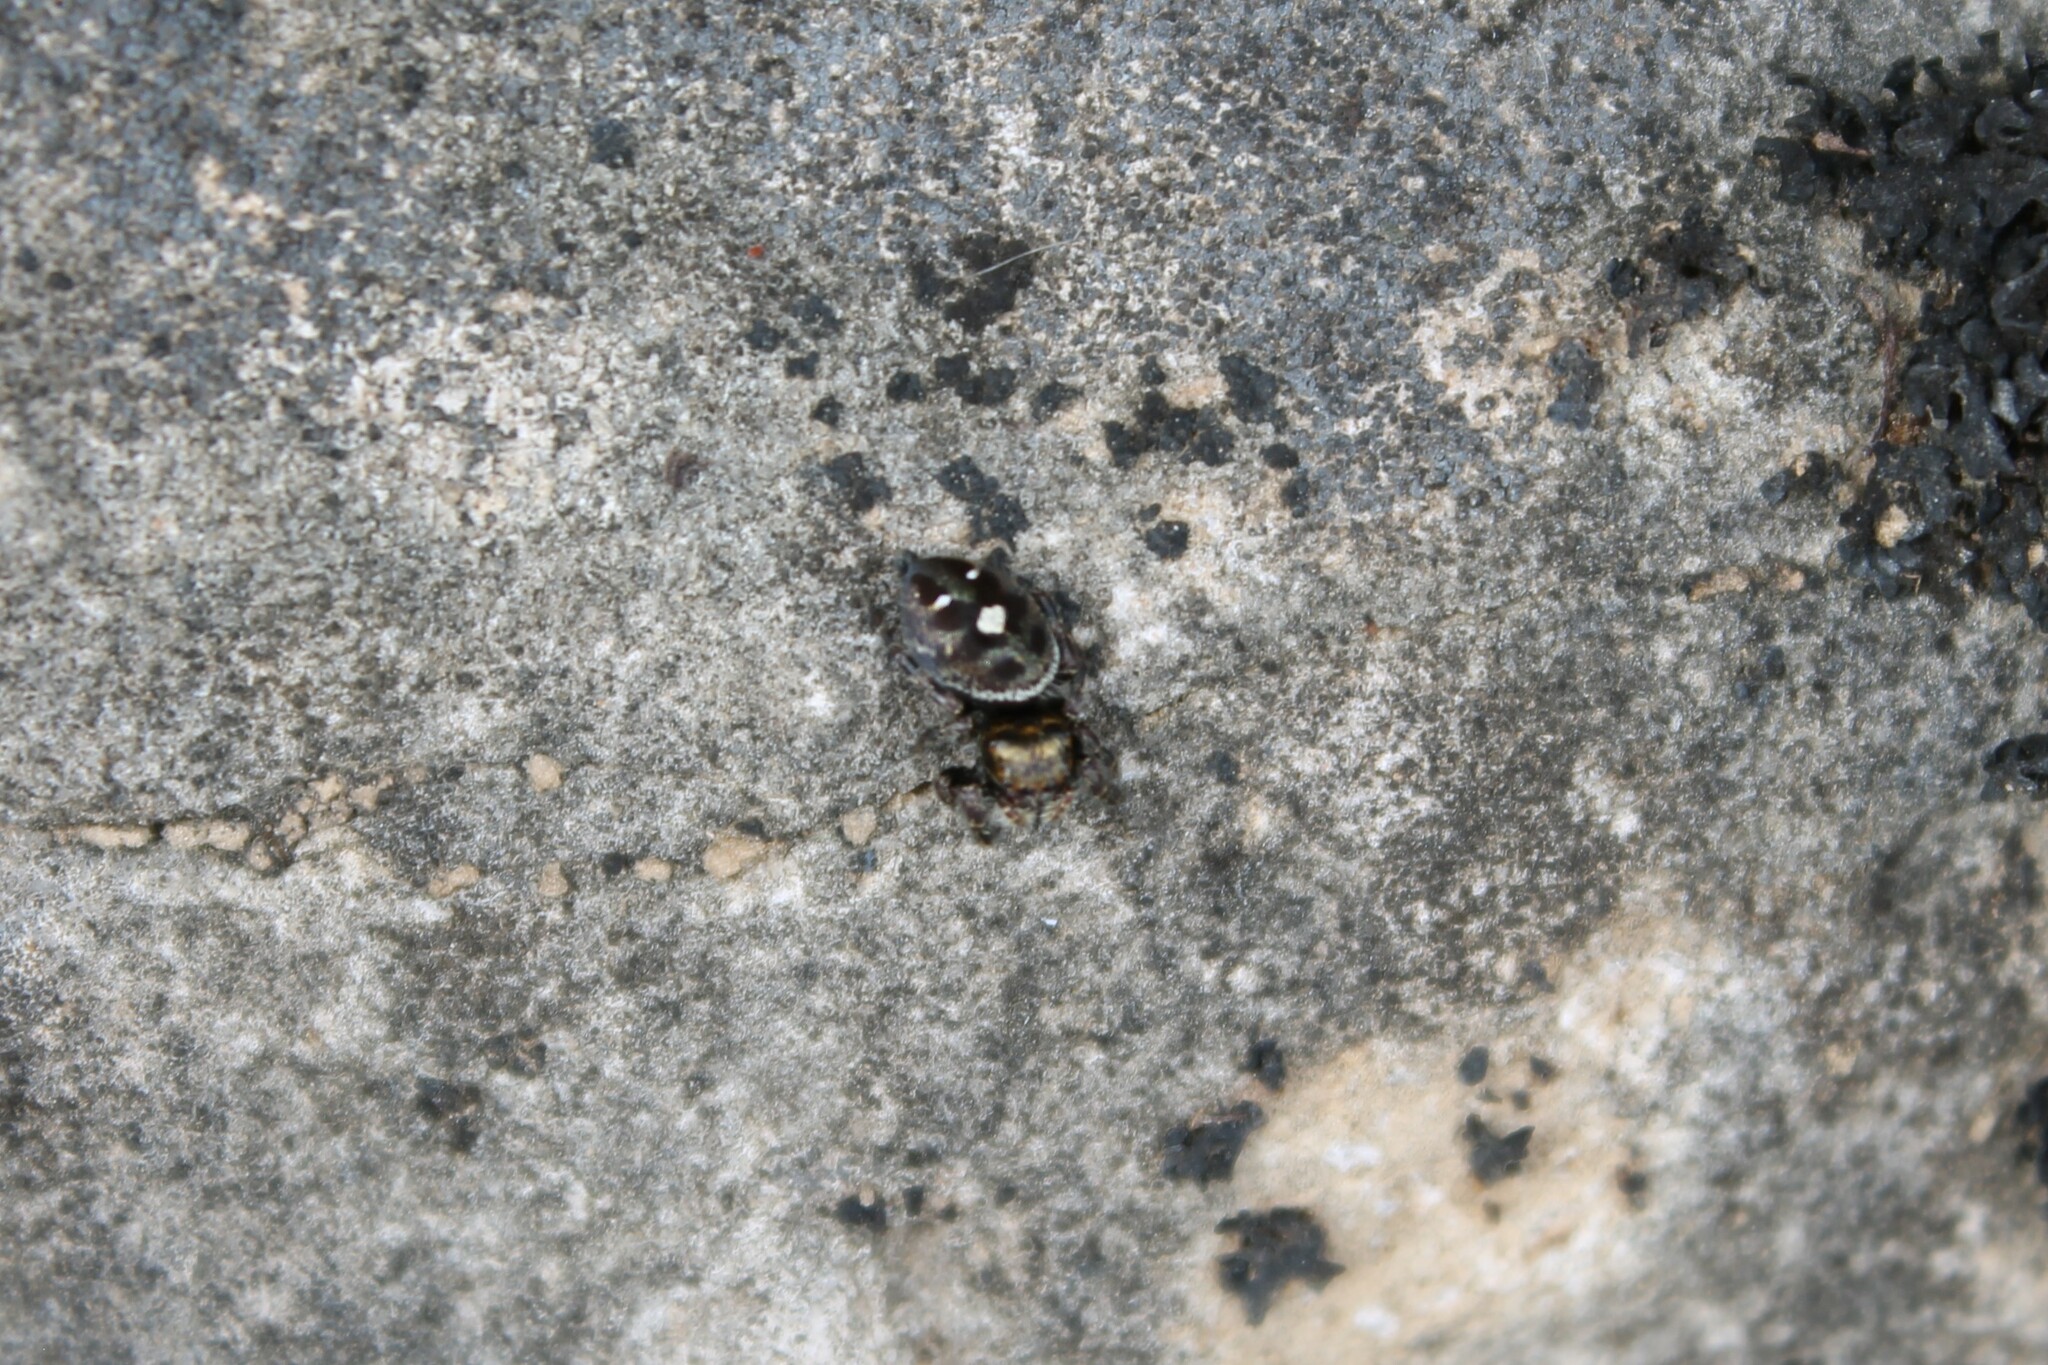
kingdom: Animalia
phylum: Arthropoda
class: Arachnida
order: Araneae
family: Salticidae
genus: Phidippus
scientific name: Phidippus audax
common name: Bold jumper
